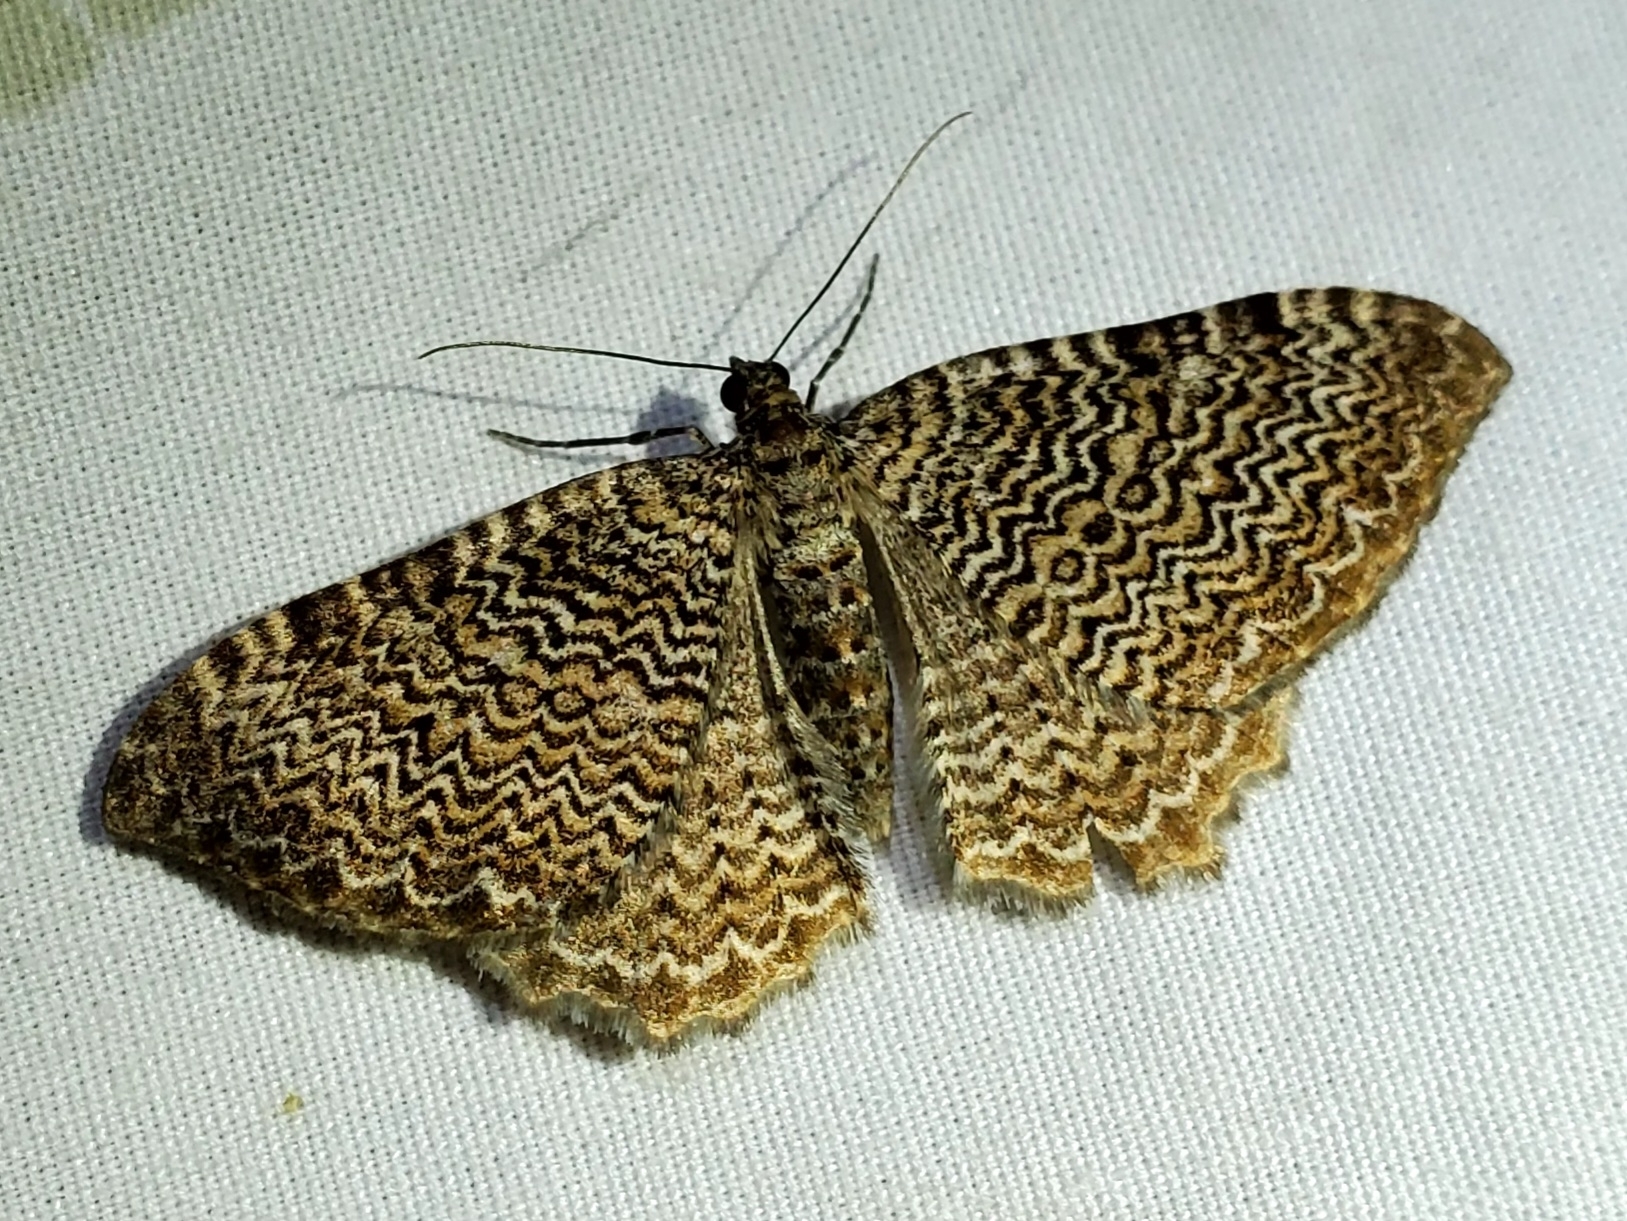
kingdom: Animalia
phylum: Arthropoda
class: Insecta
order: Lepidoptera
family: Geometridae
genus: Rheumaptera
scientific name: Rheumaptera prunivorata
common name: Cherry scallop shell moth
